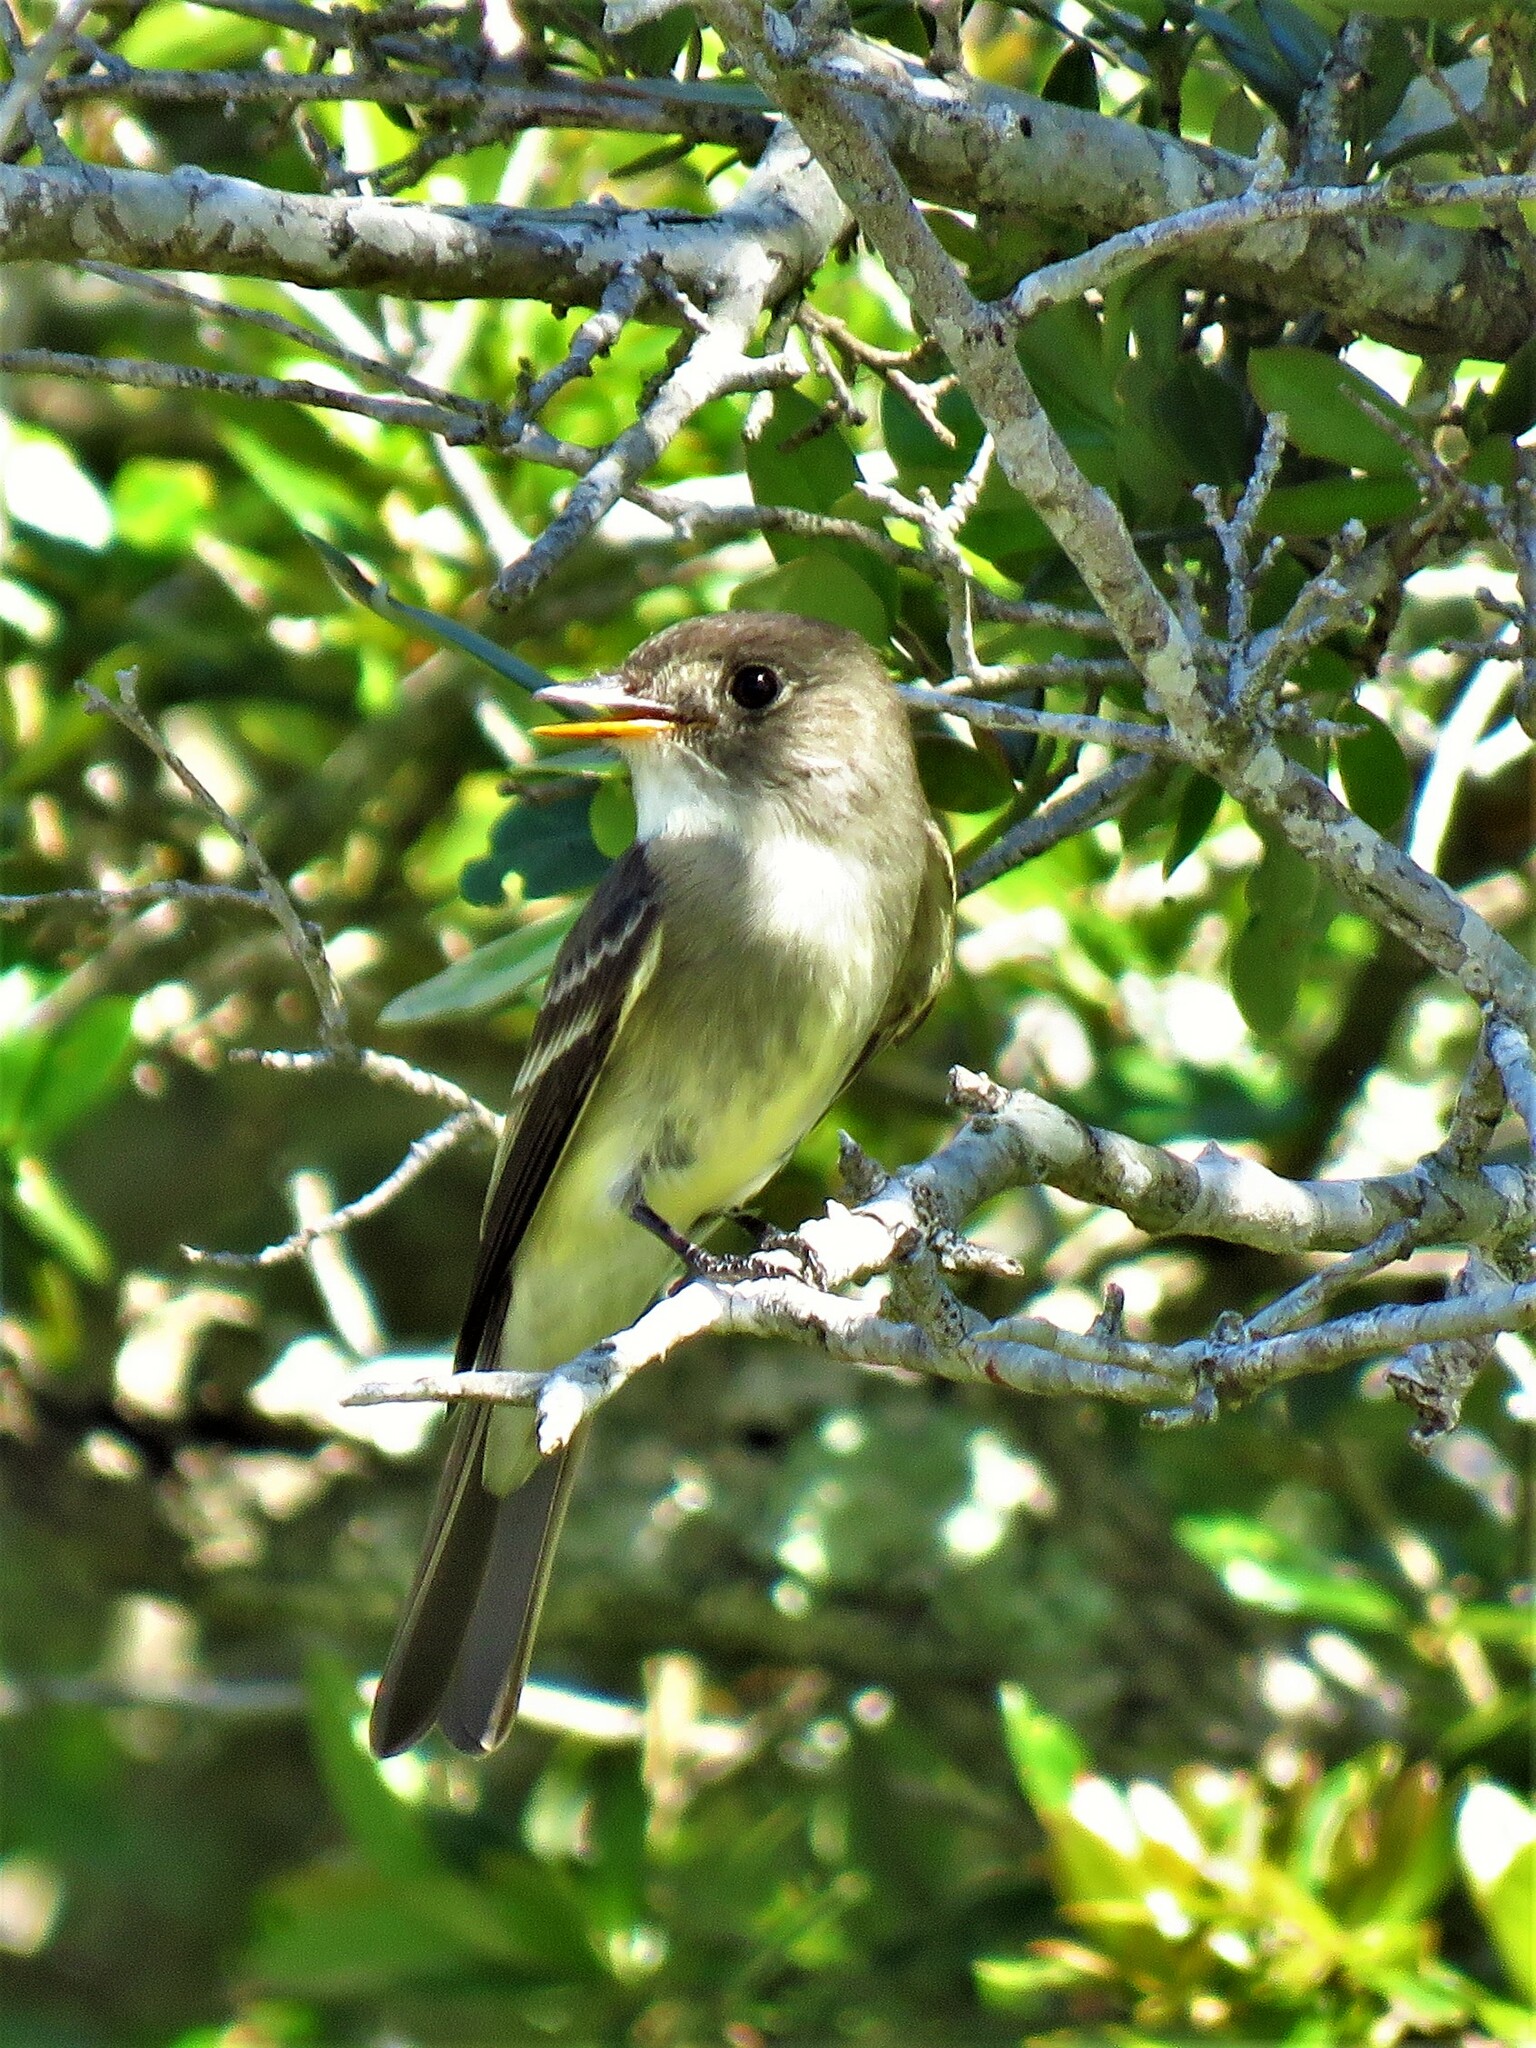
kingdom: Animalia
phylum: Chordata
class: Aves
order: Passeriformes
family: Tyrannidae
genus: Contopus
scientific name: Contopus virens
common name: Eastern wood-pewee
